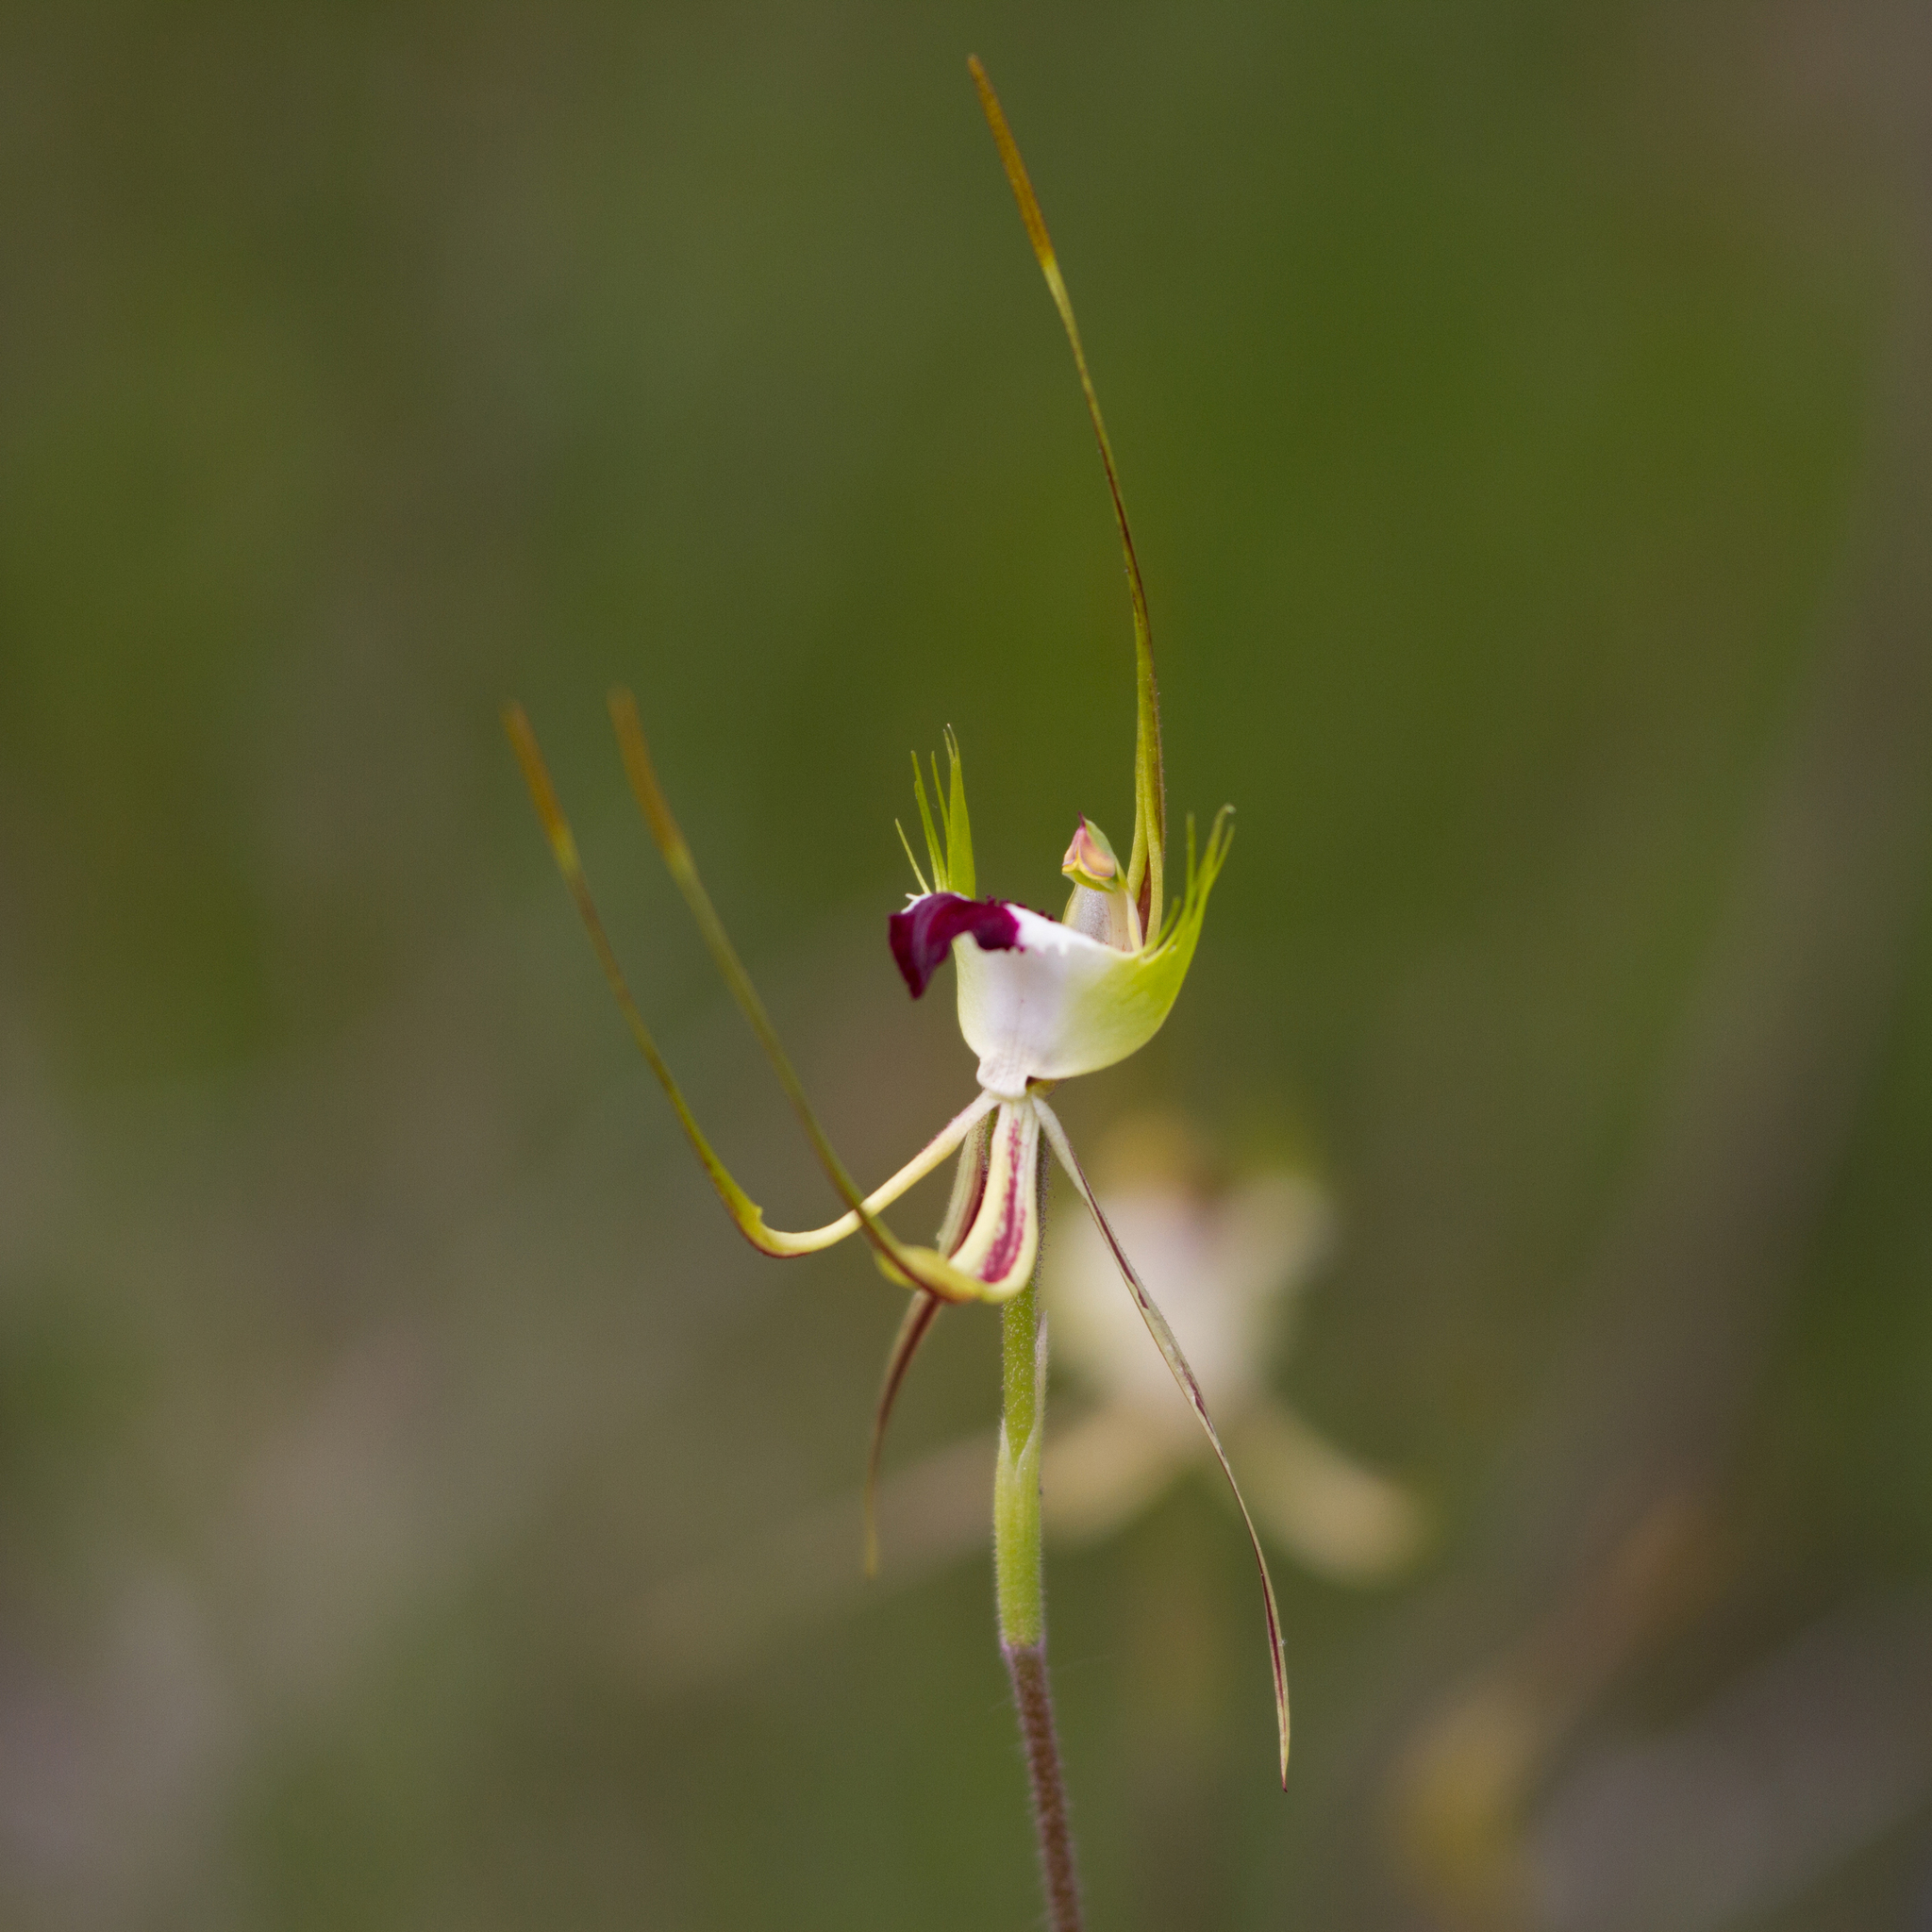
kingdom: Plantae
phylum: Tracheophyta
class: Liliopsida
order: Asparagales
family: Orchidaceae
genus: Caladenia
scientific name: Caladenia tentaculata
